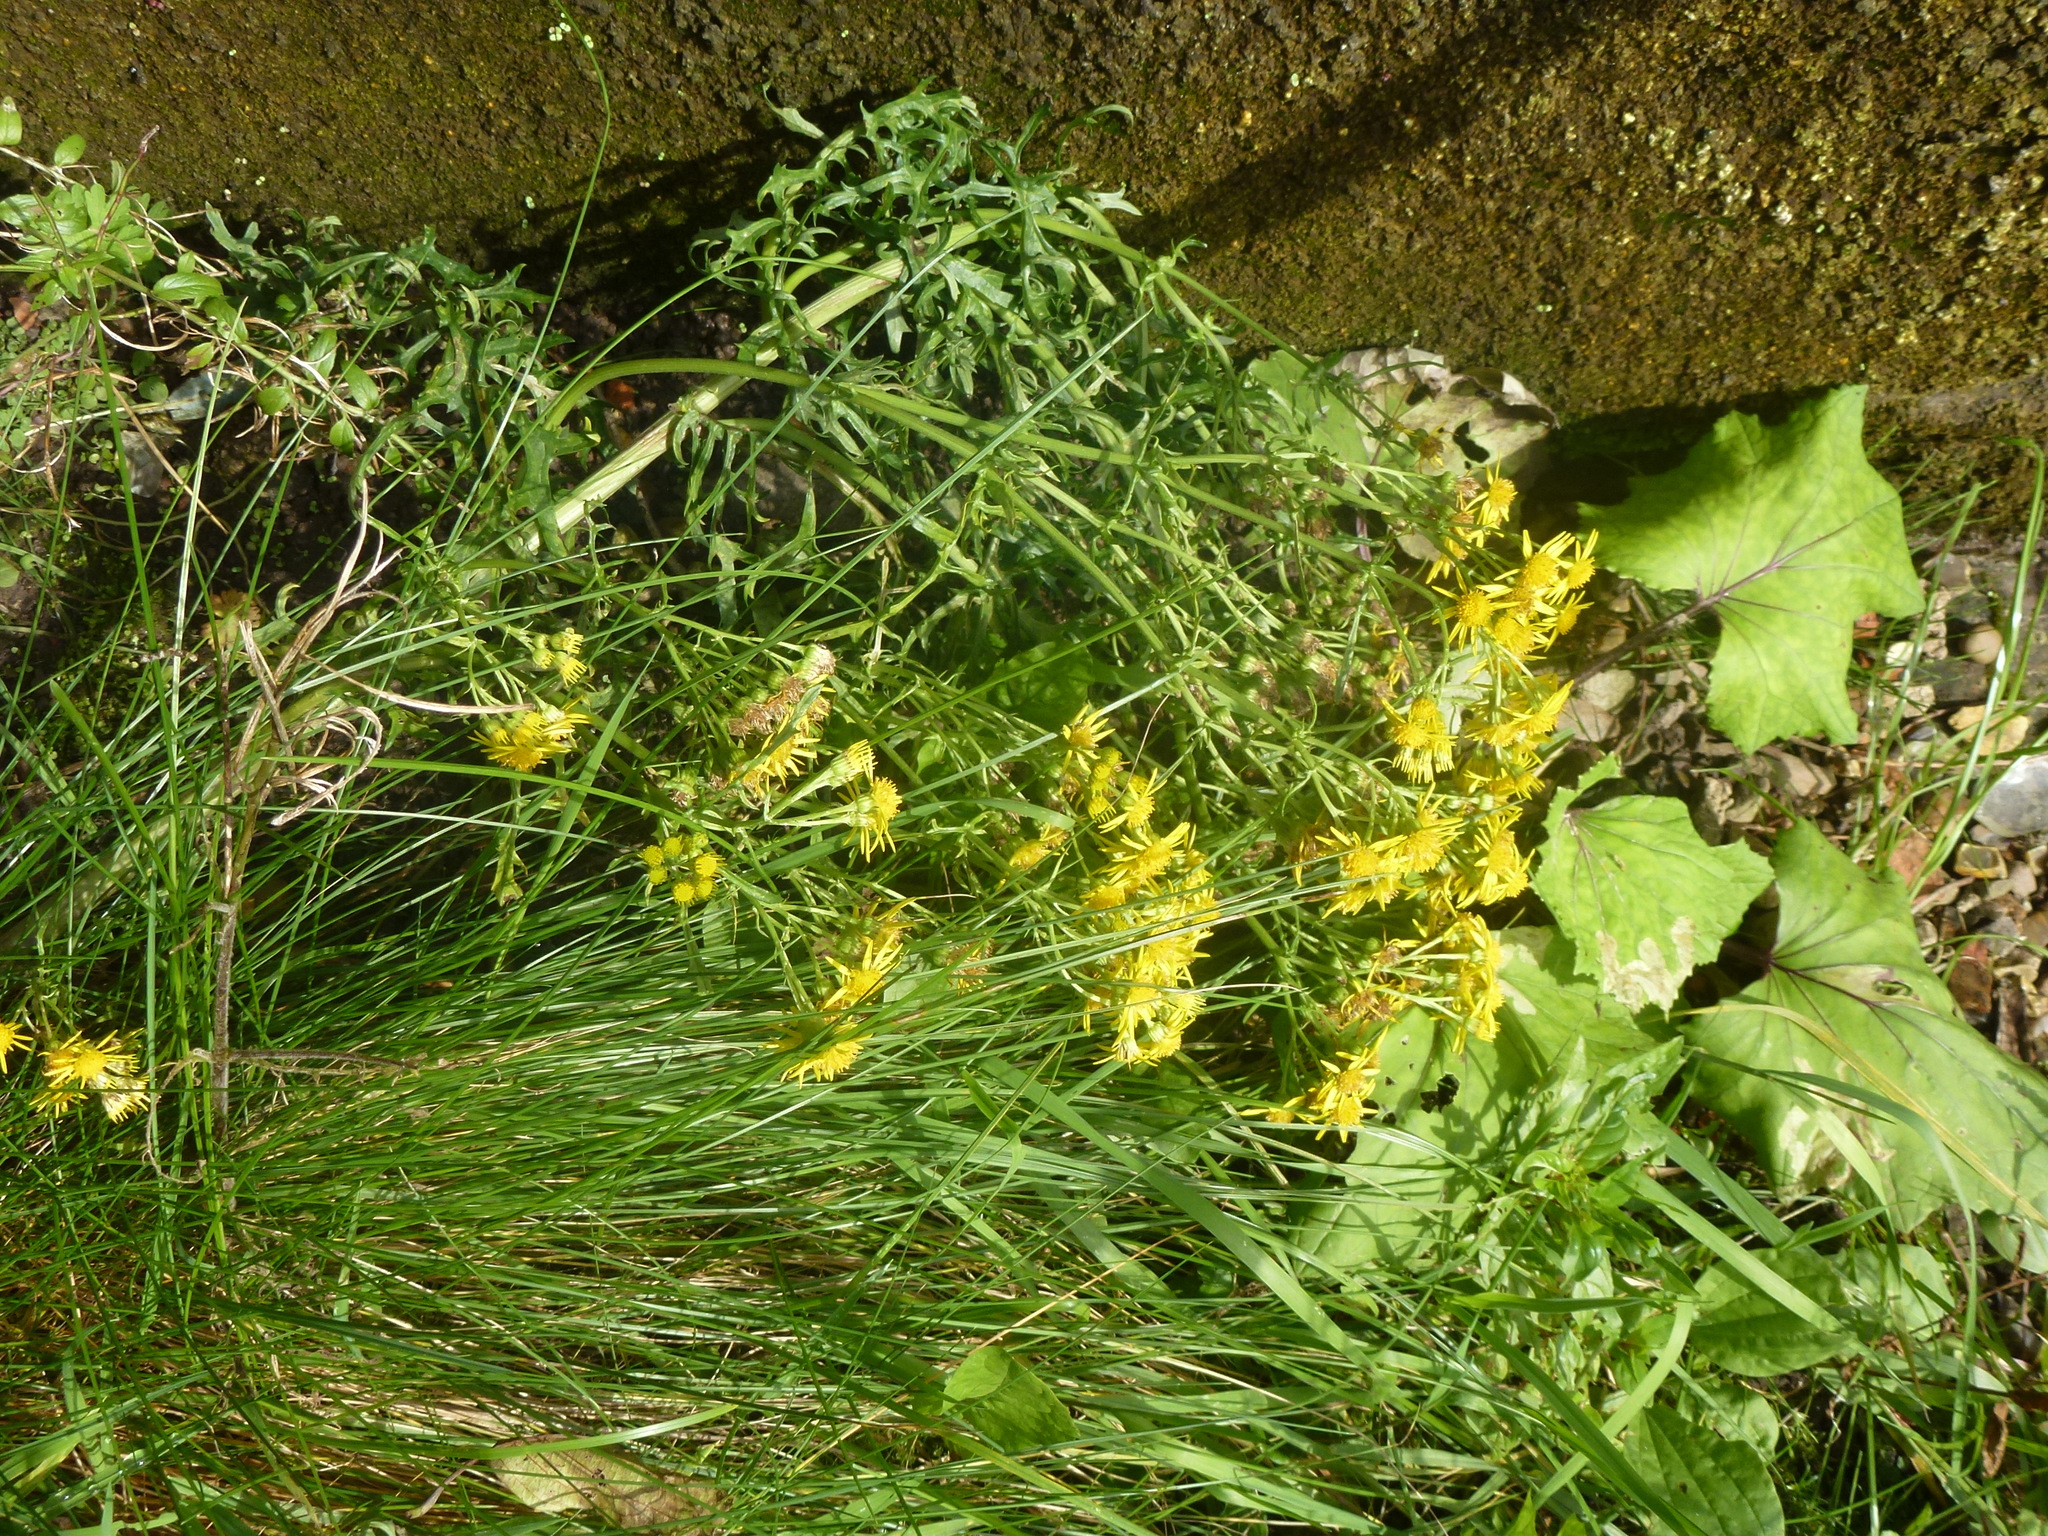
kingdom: Plantae
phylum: Tracheophyta
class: Magnoliopsida
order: Asterales
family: Asteraceae
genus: Jacobaea
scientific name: Jacobaea vulgaris
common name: Stinking willie
